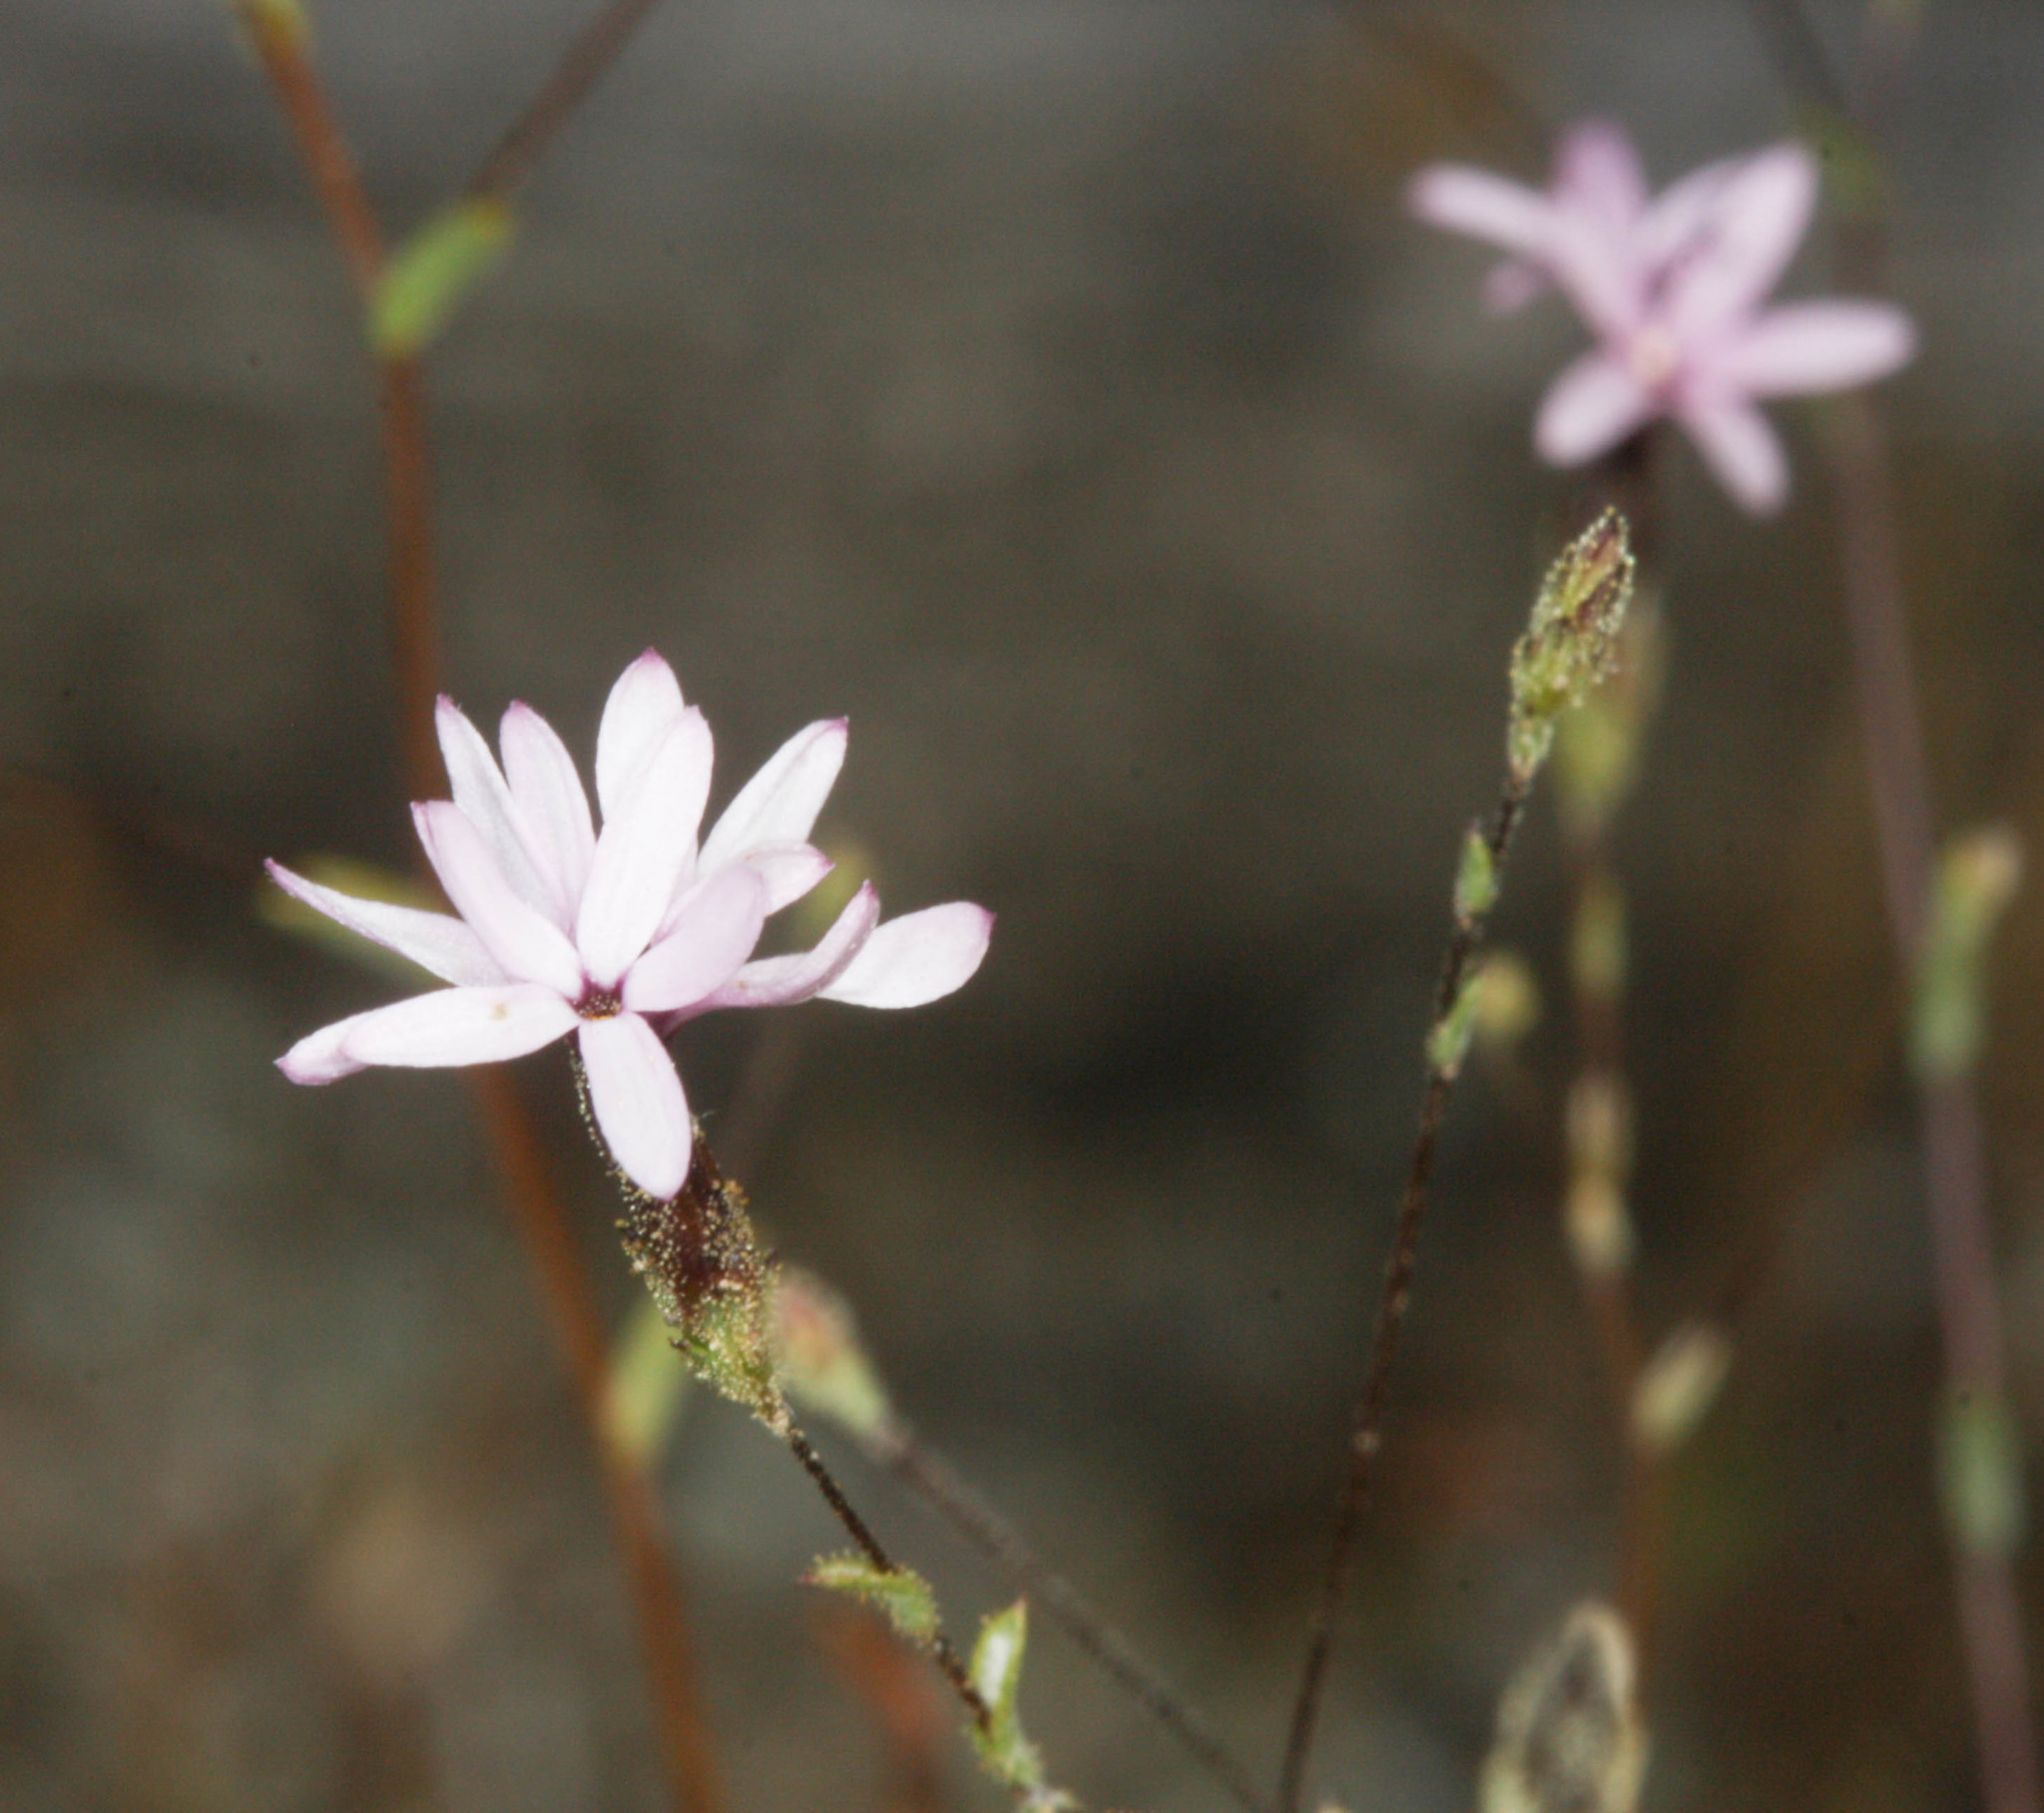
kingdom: Plantae
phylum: Tracheophyta
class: Magnoliopsida
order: Asterales
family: Asteraceae
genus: Lessingia
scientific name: Lessingia micradenia
